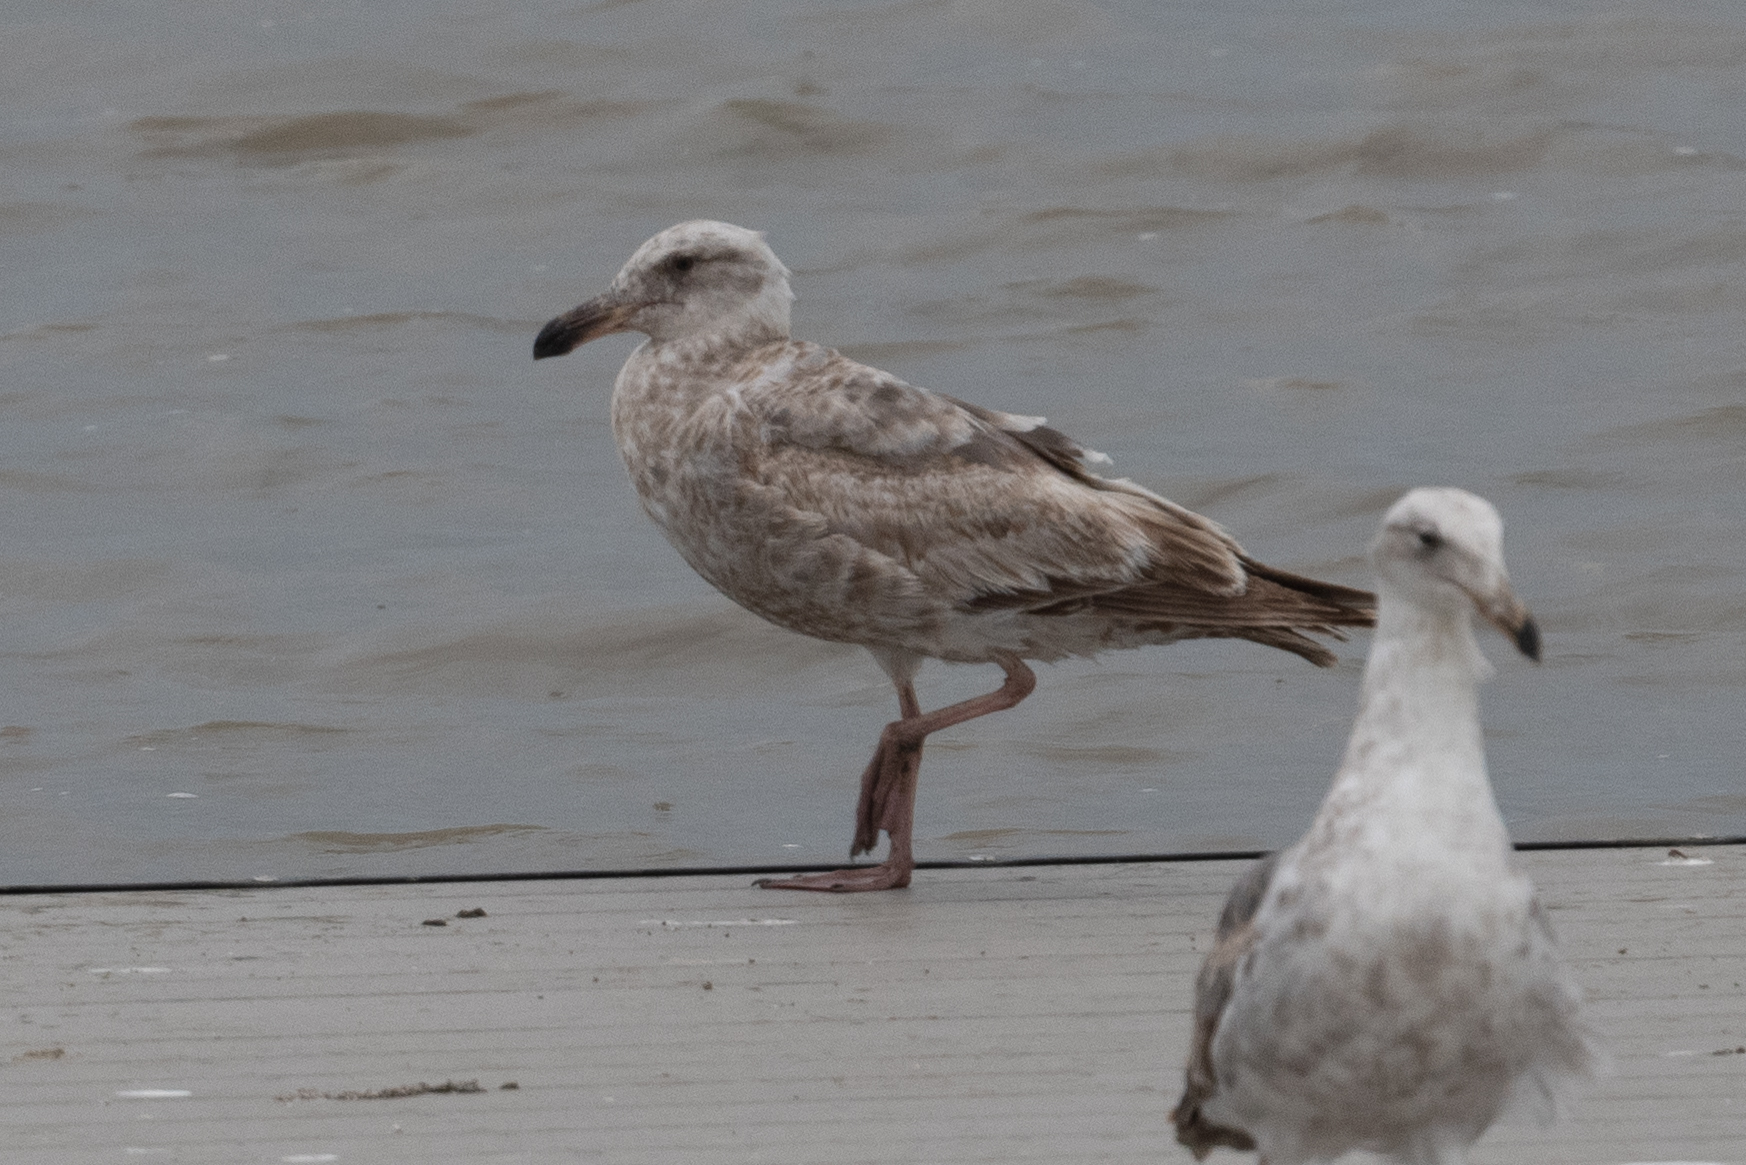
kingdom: Animalia
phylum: Chordata
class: Aves
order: Charadriiformes
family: Laridae
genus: Larus
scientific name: Larus occidentalis
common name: Western gull
